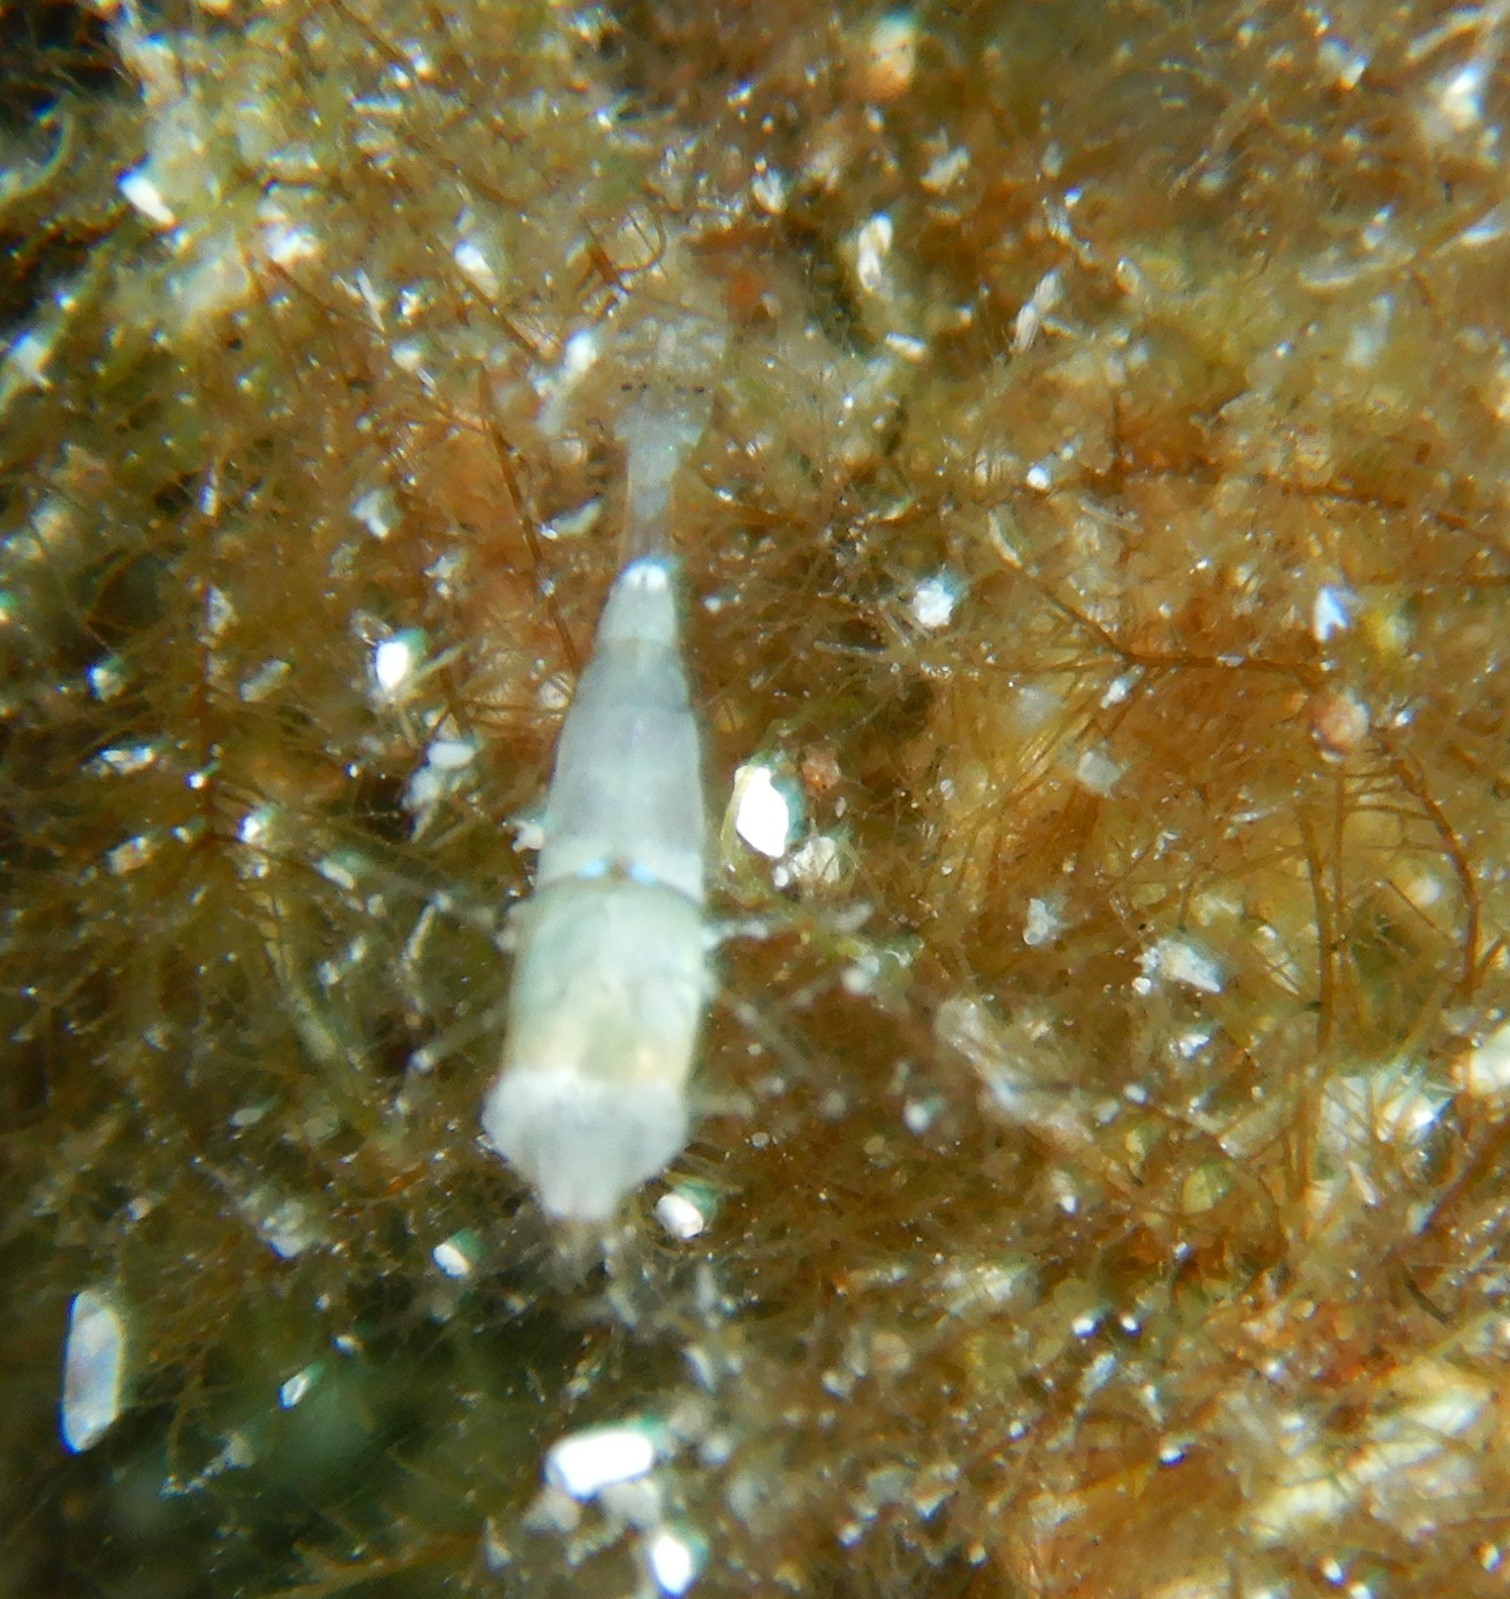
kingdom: Animalia
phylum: Arthropoda
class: Malacostraca
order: Decapoda
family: Crangonidae
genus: Philocheras
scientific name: Philocheras fasciatus
